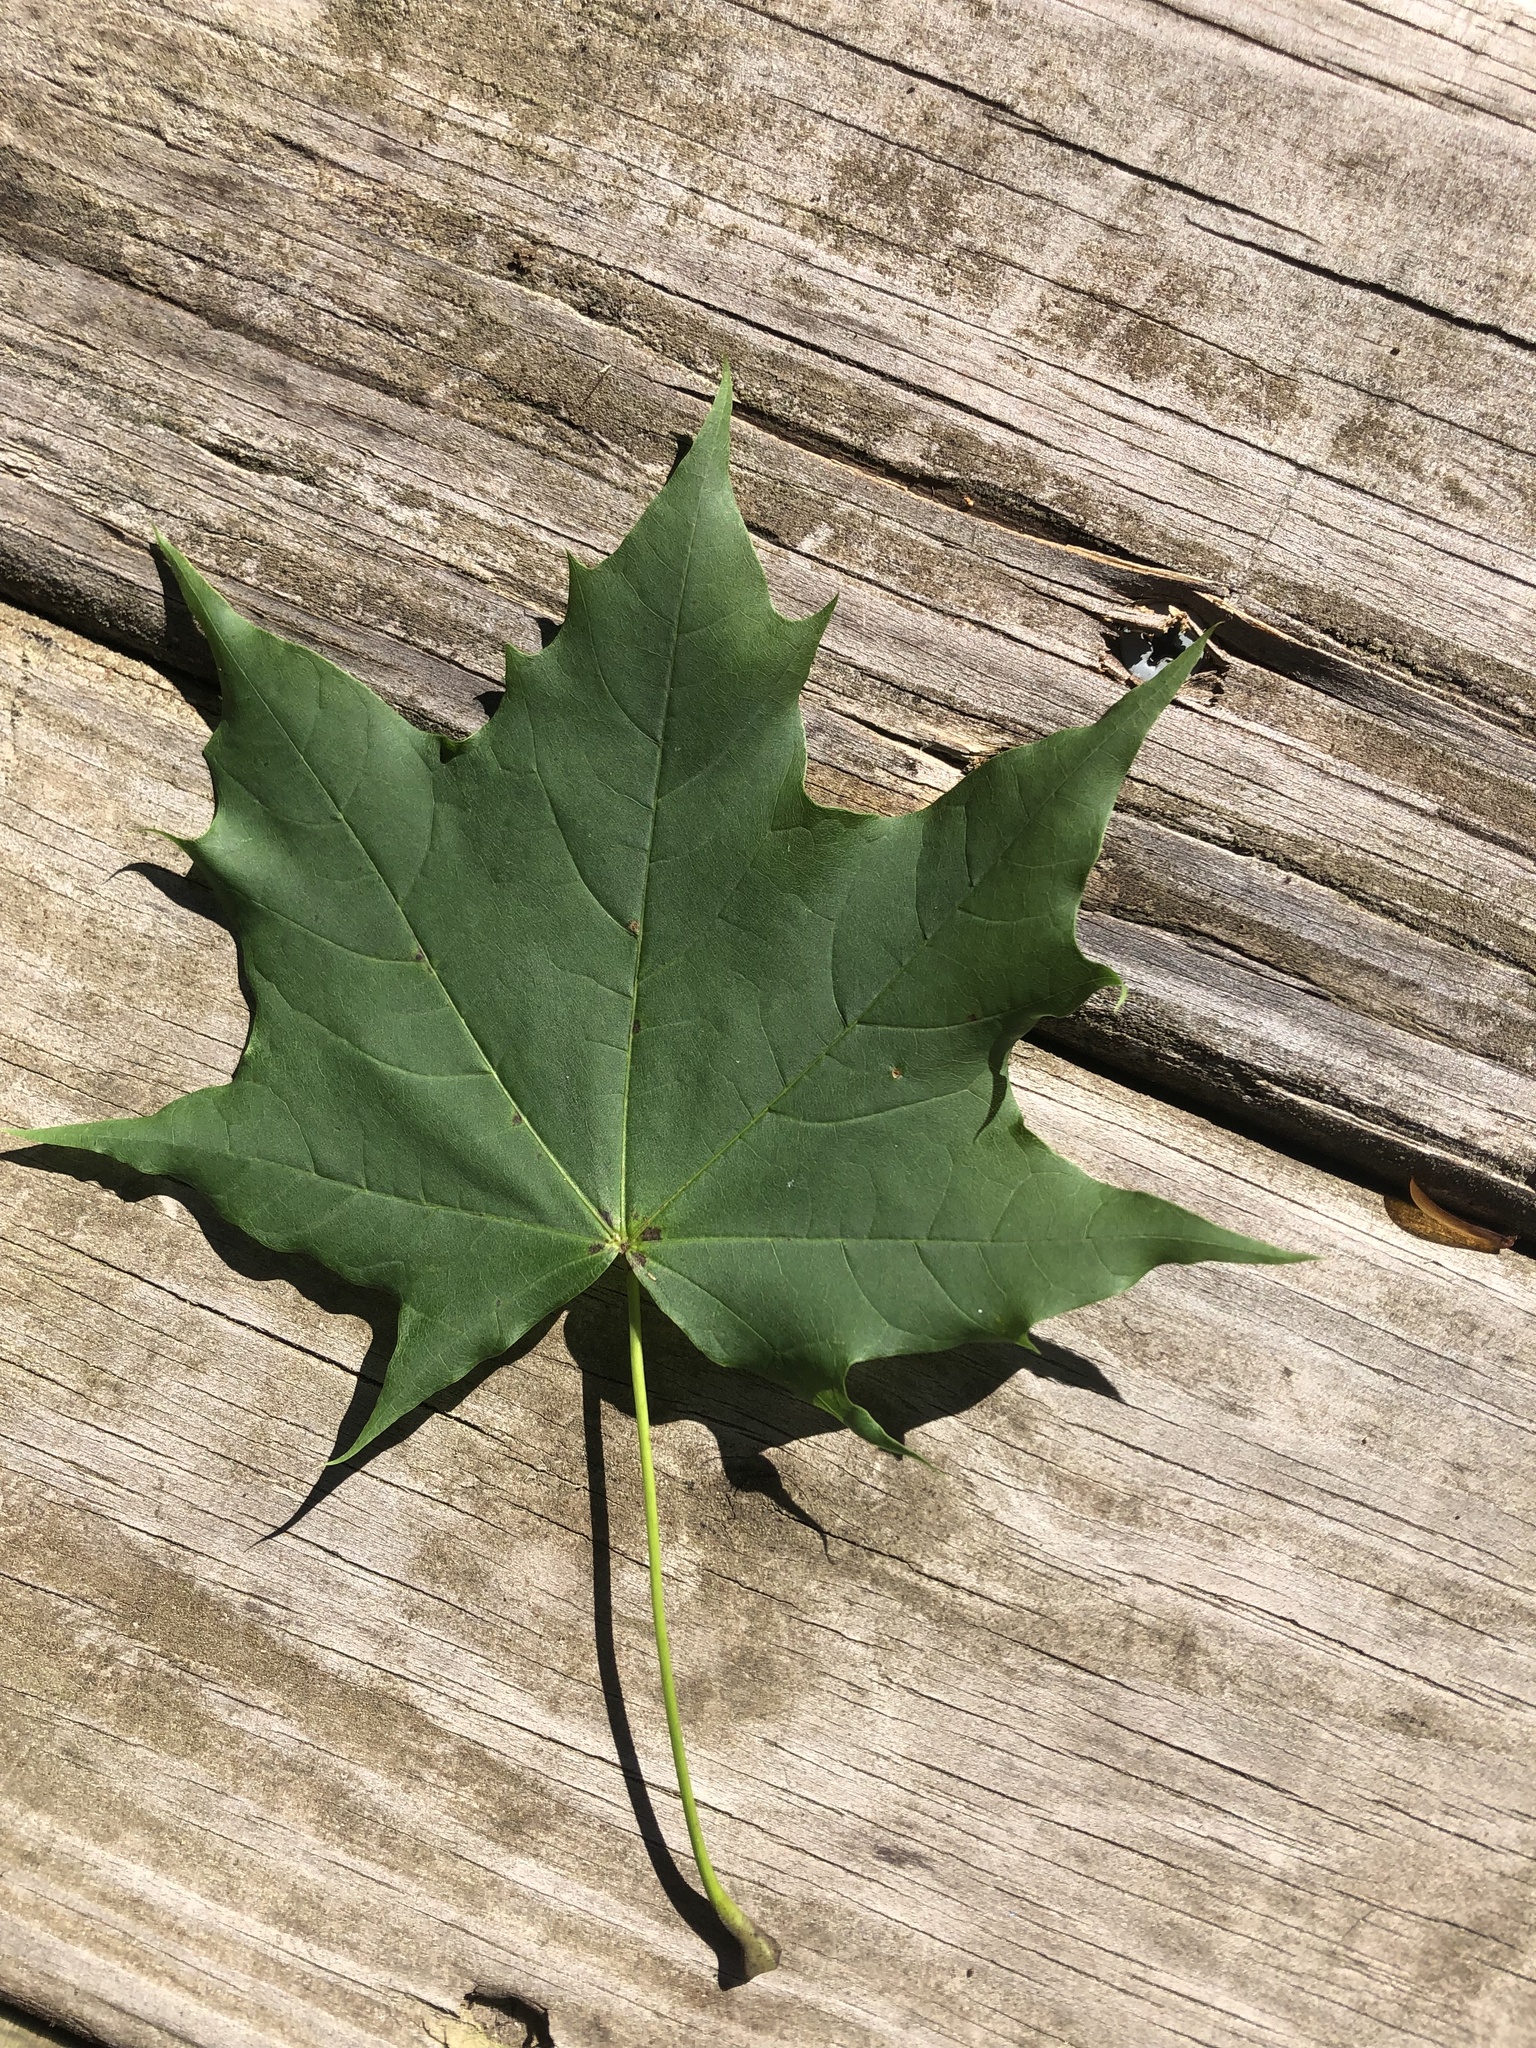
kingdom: Plantae
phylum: Tracheophyta
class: Magnoliopsida
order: Sapindales
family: Sapindaceae
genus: Acer
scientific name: Acer platanoides
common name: Norway maple
